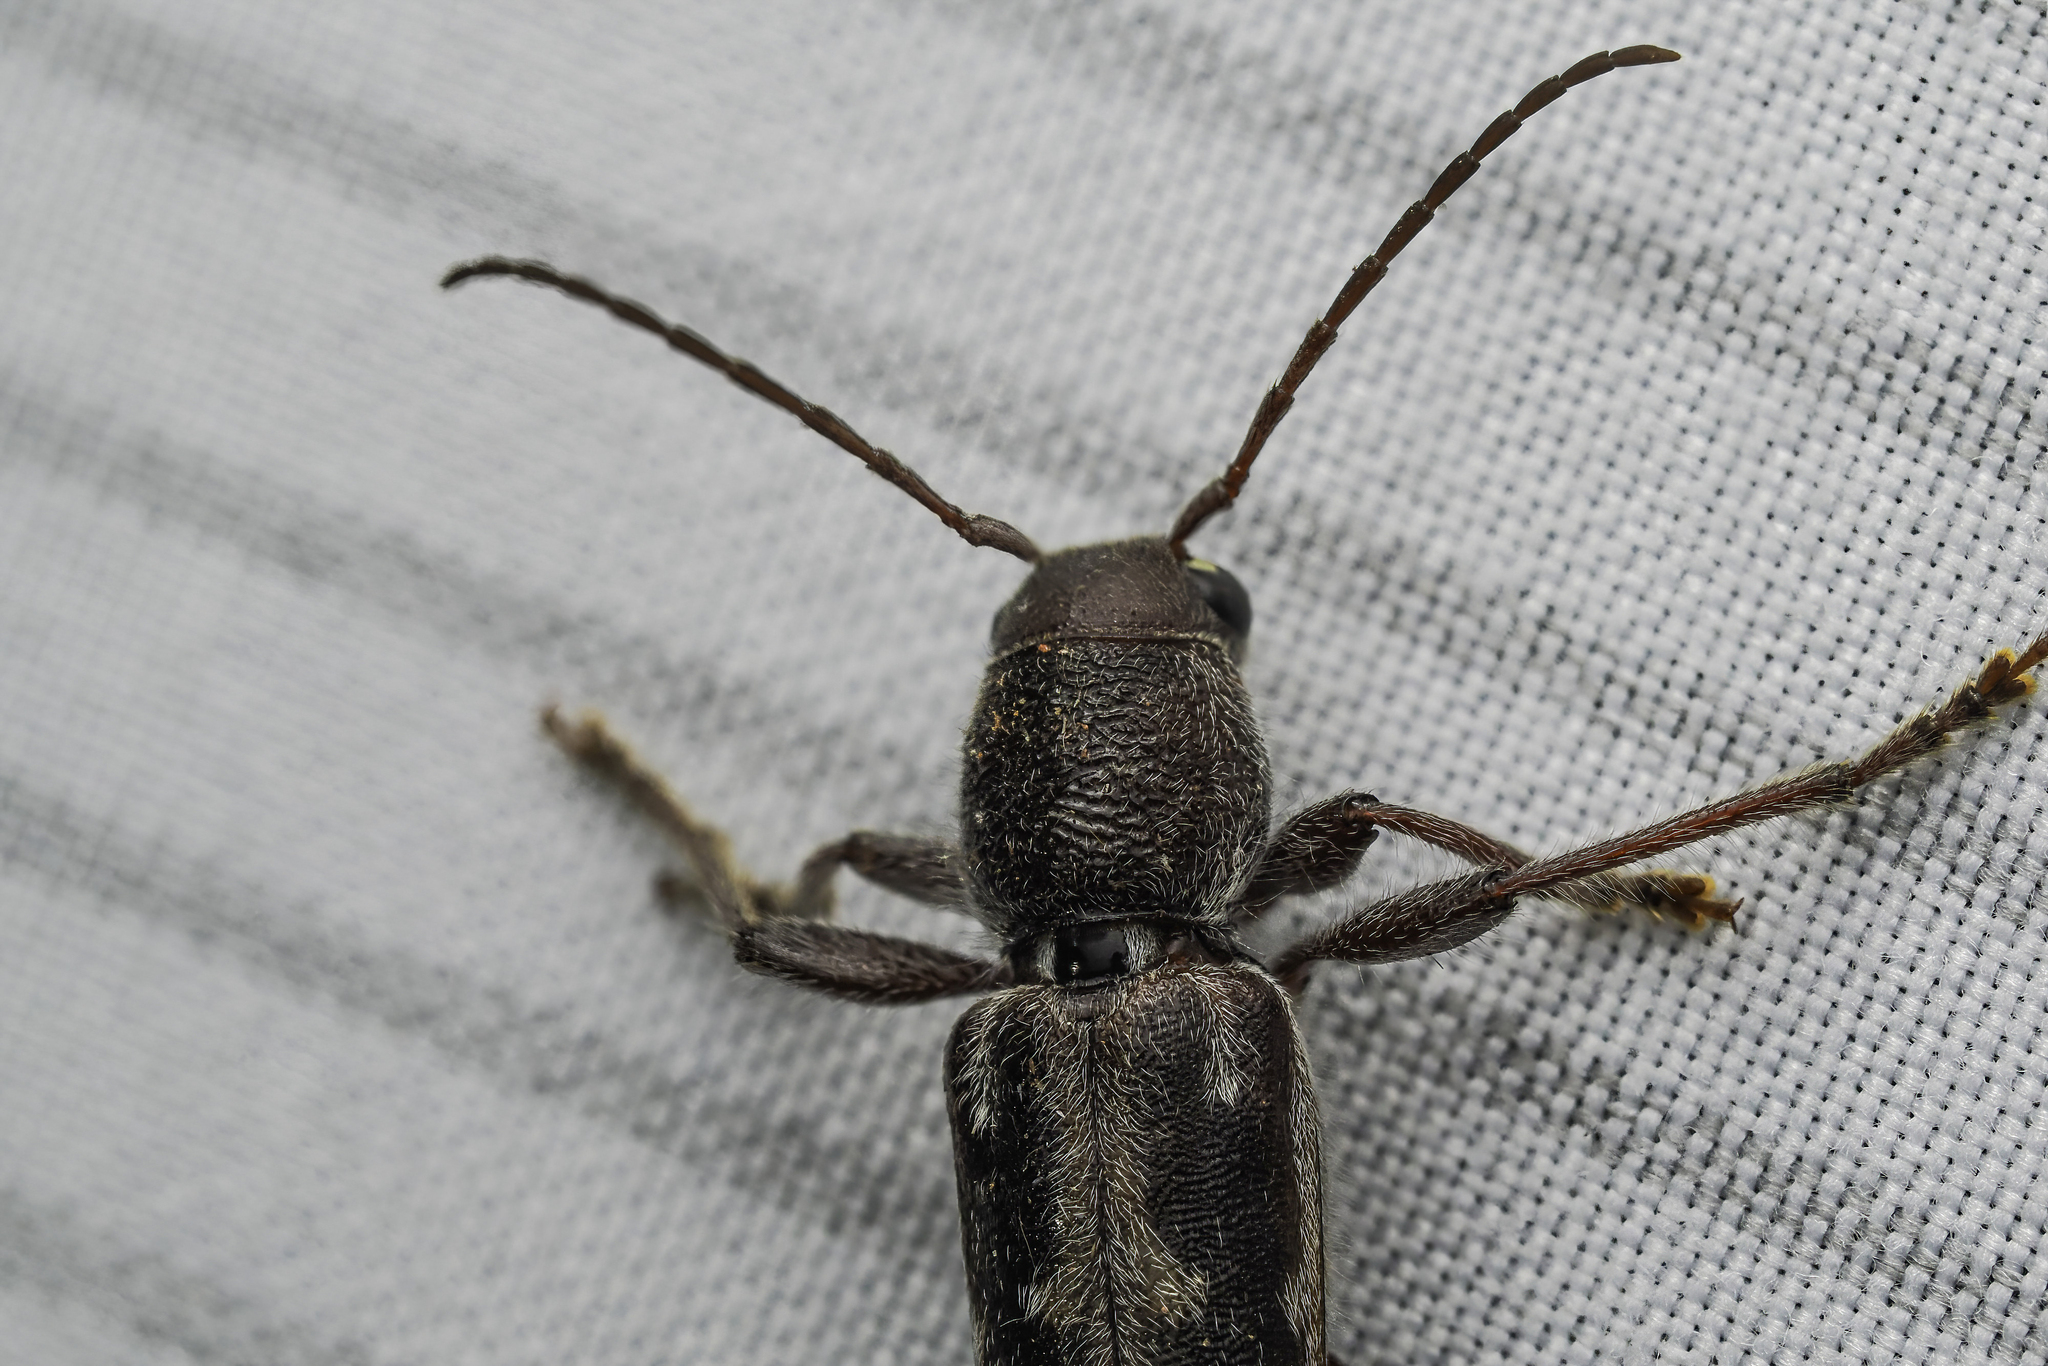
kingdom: Animalia
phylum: Arthropoda
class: Insecta
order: Coleoptera
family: Cerambycidae
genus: Xylotrechus
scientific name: Xylotrechus sagittatus
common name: Arrowhead borer
